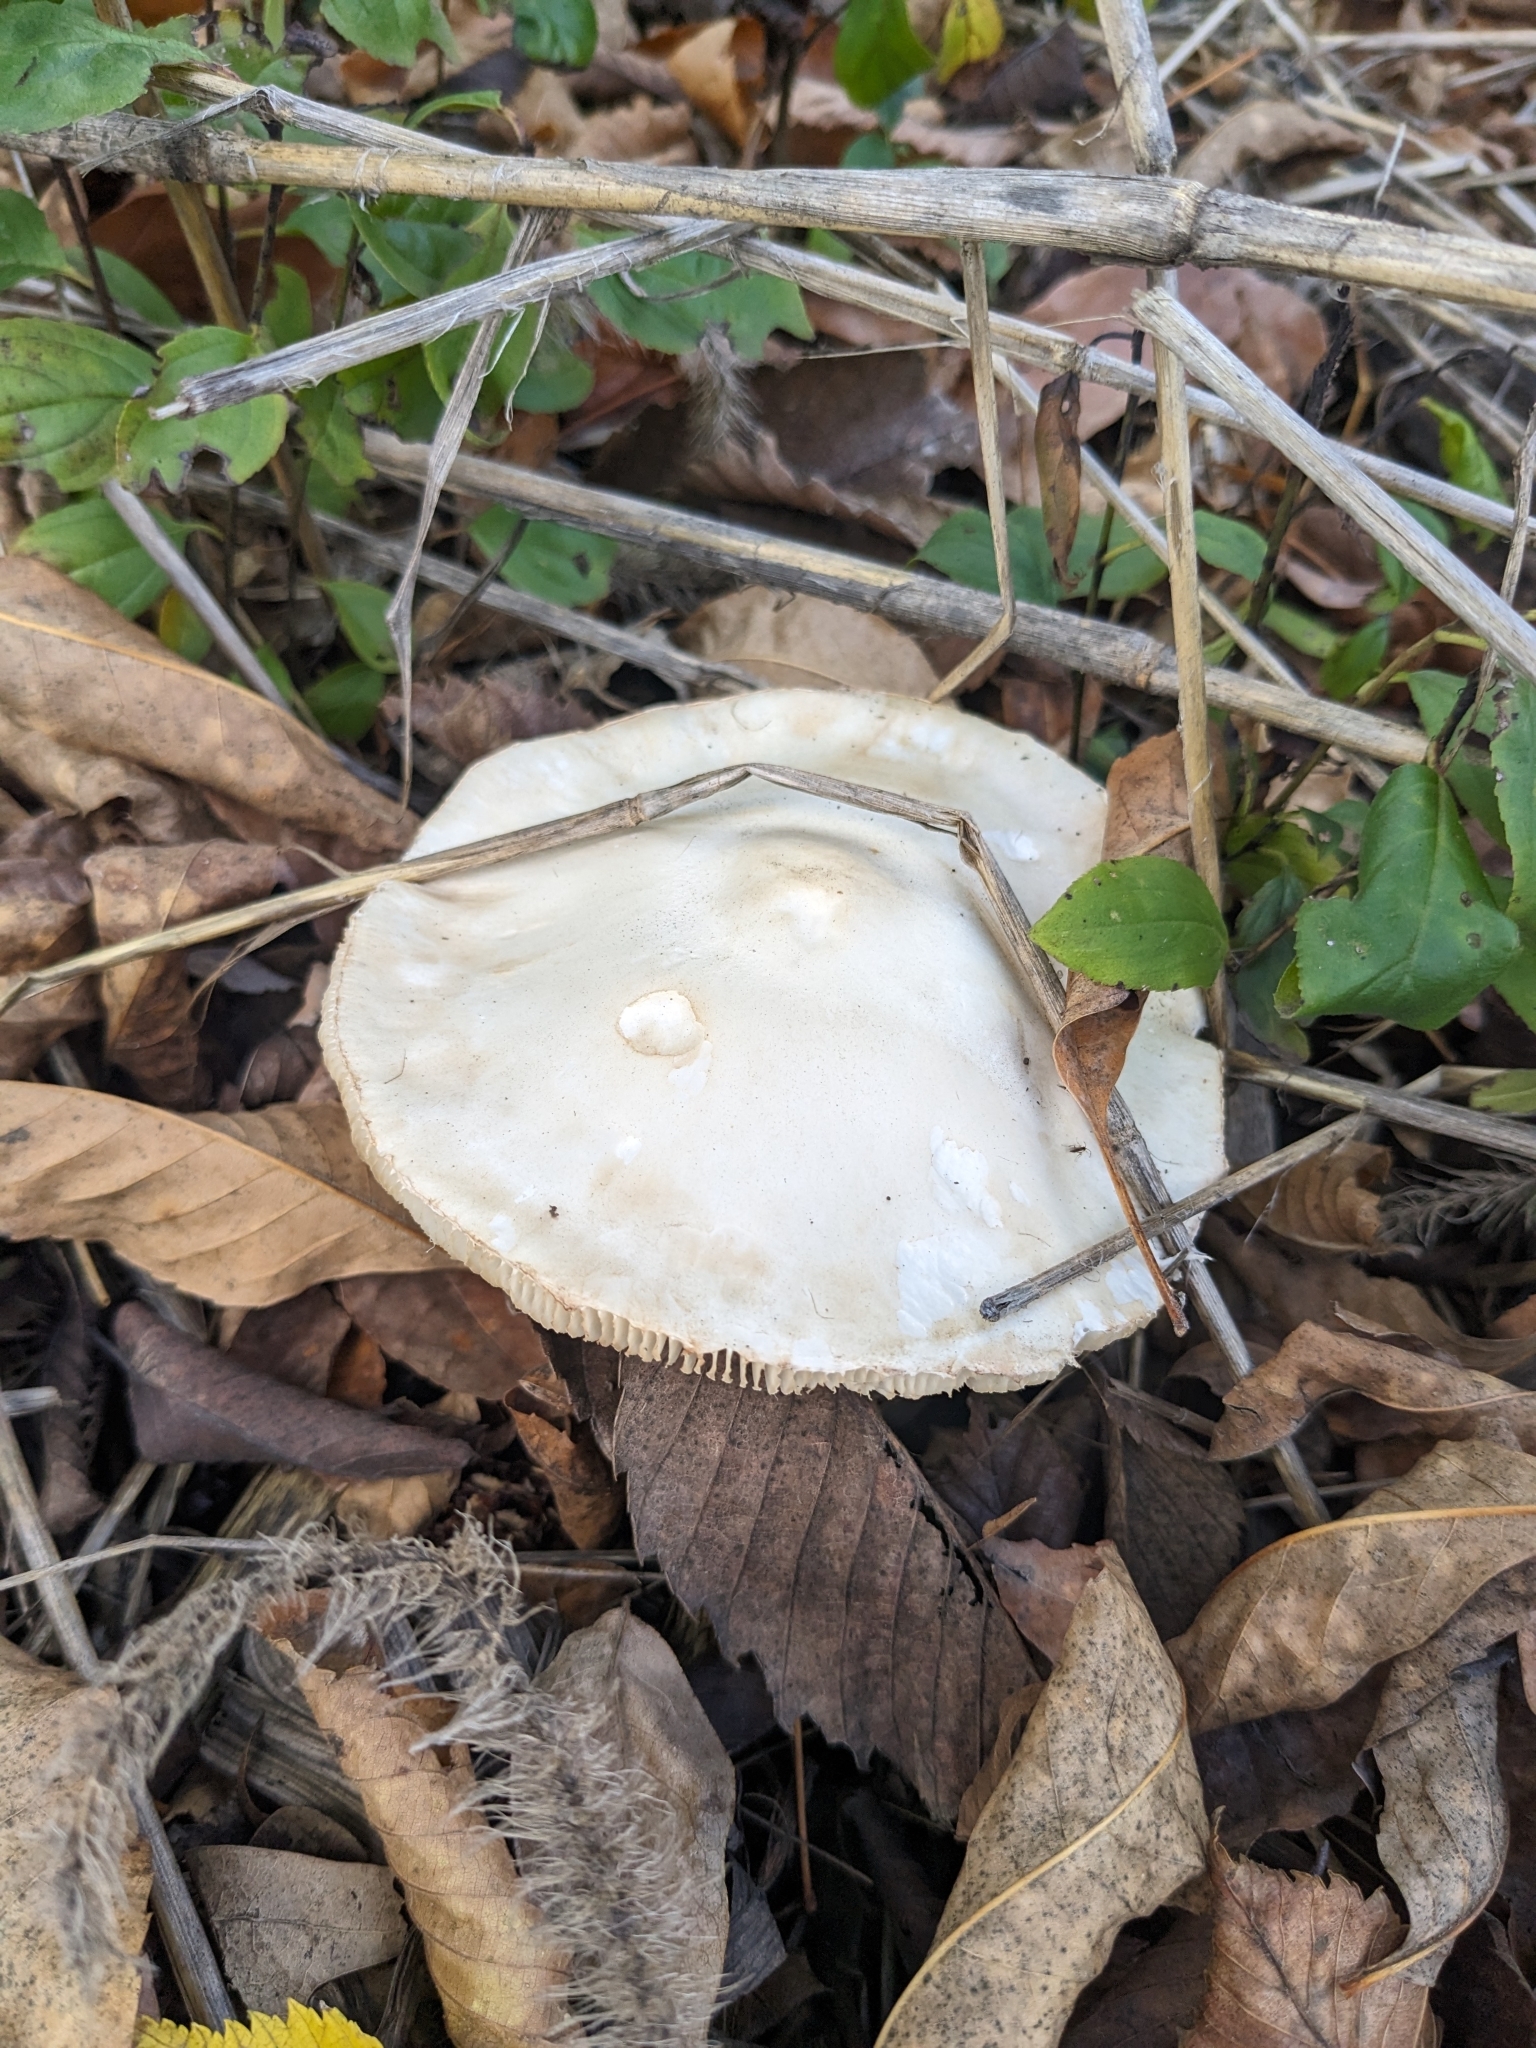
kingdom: Fungi
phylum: Basidiomycota
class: Agaricomycetes
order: Agaricales
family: Agaricaceae
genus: Leucoagaricus
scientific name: Leucoagaricus leucothites
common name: White dapperling
